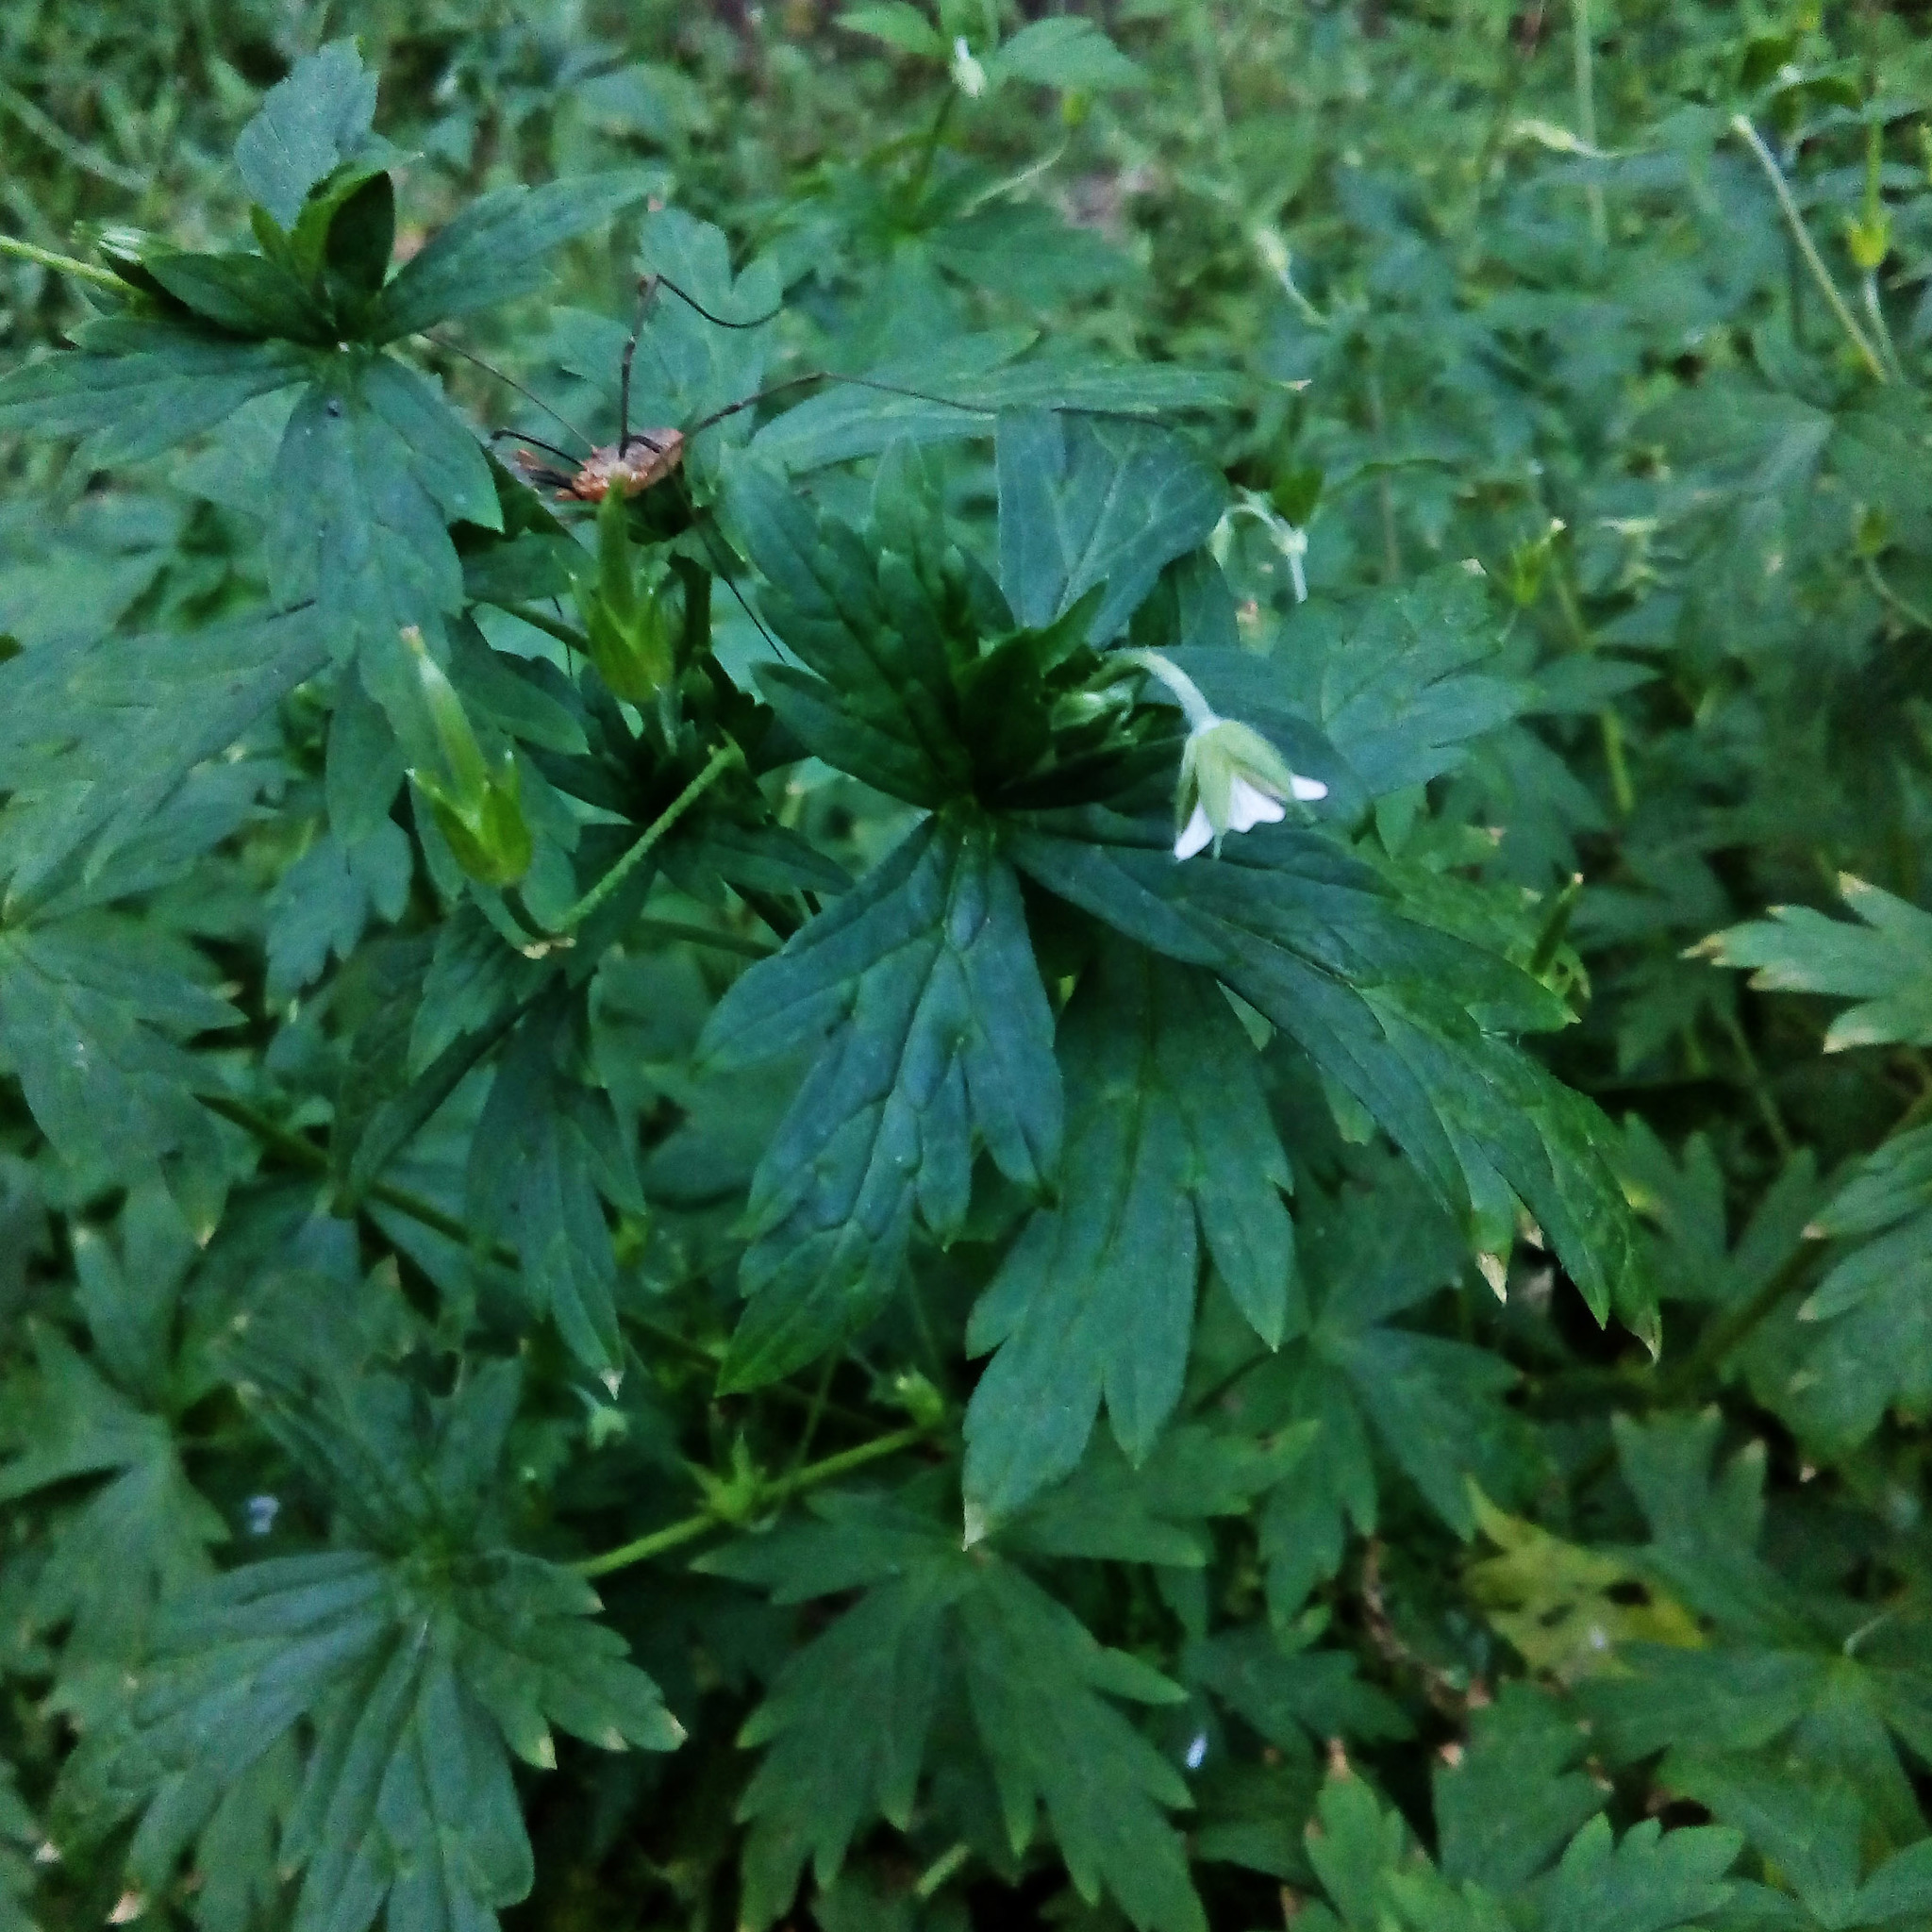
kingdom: Plantae
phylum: Tracheophyta
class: Magnoliopsida
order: Geraniales
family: Geraniaceae
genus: Geranium
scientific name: Geranium sibiricum
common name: Siberian crane's-bill
